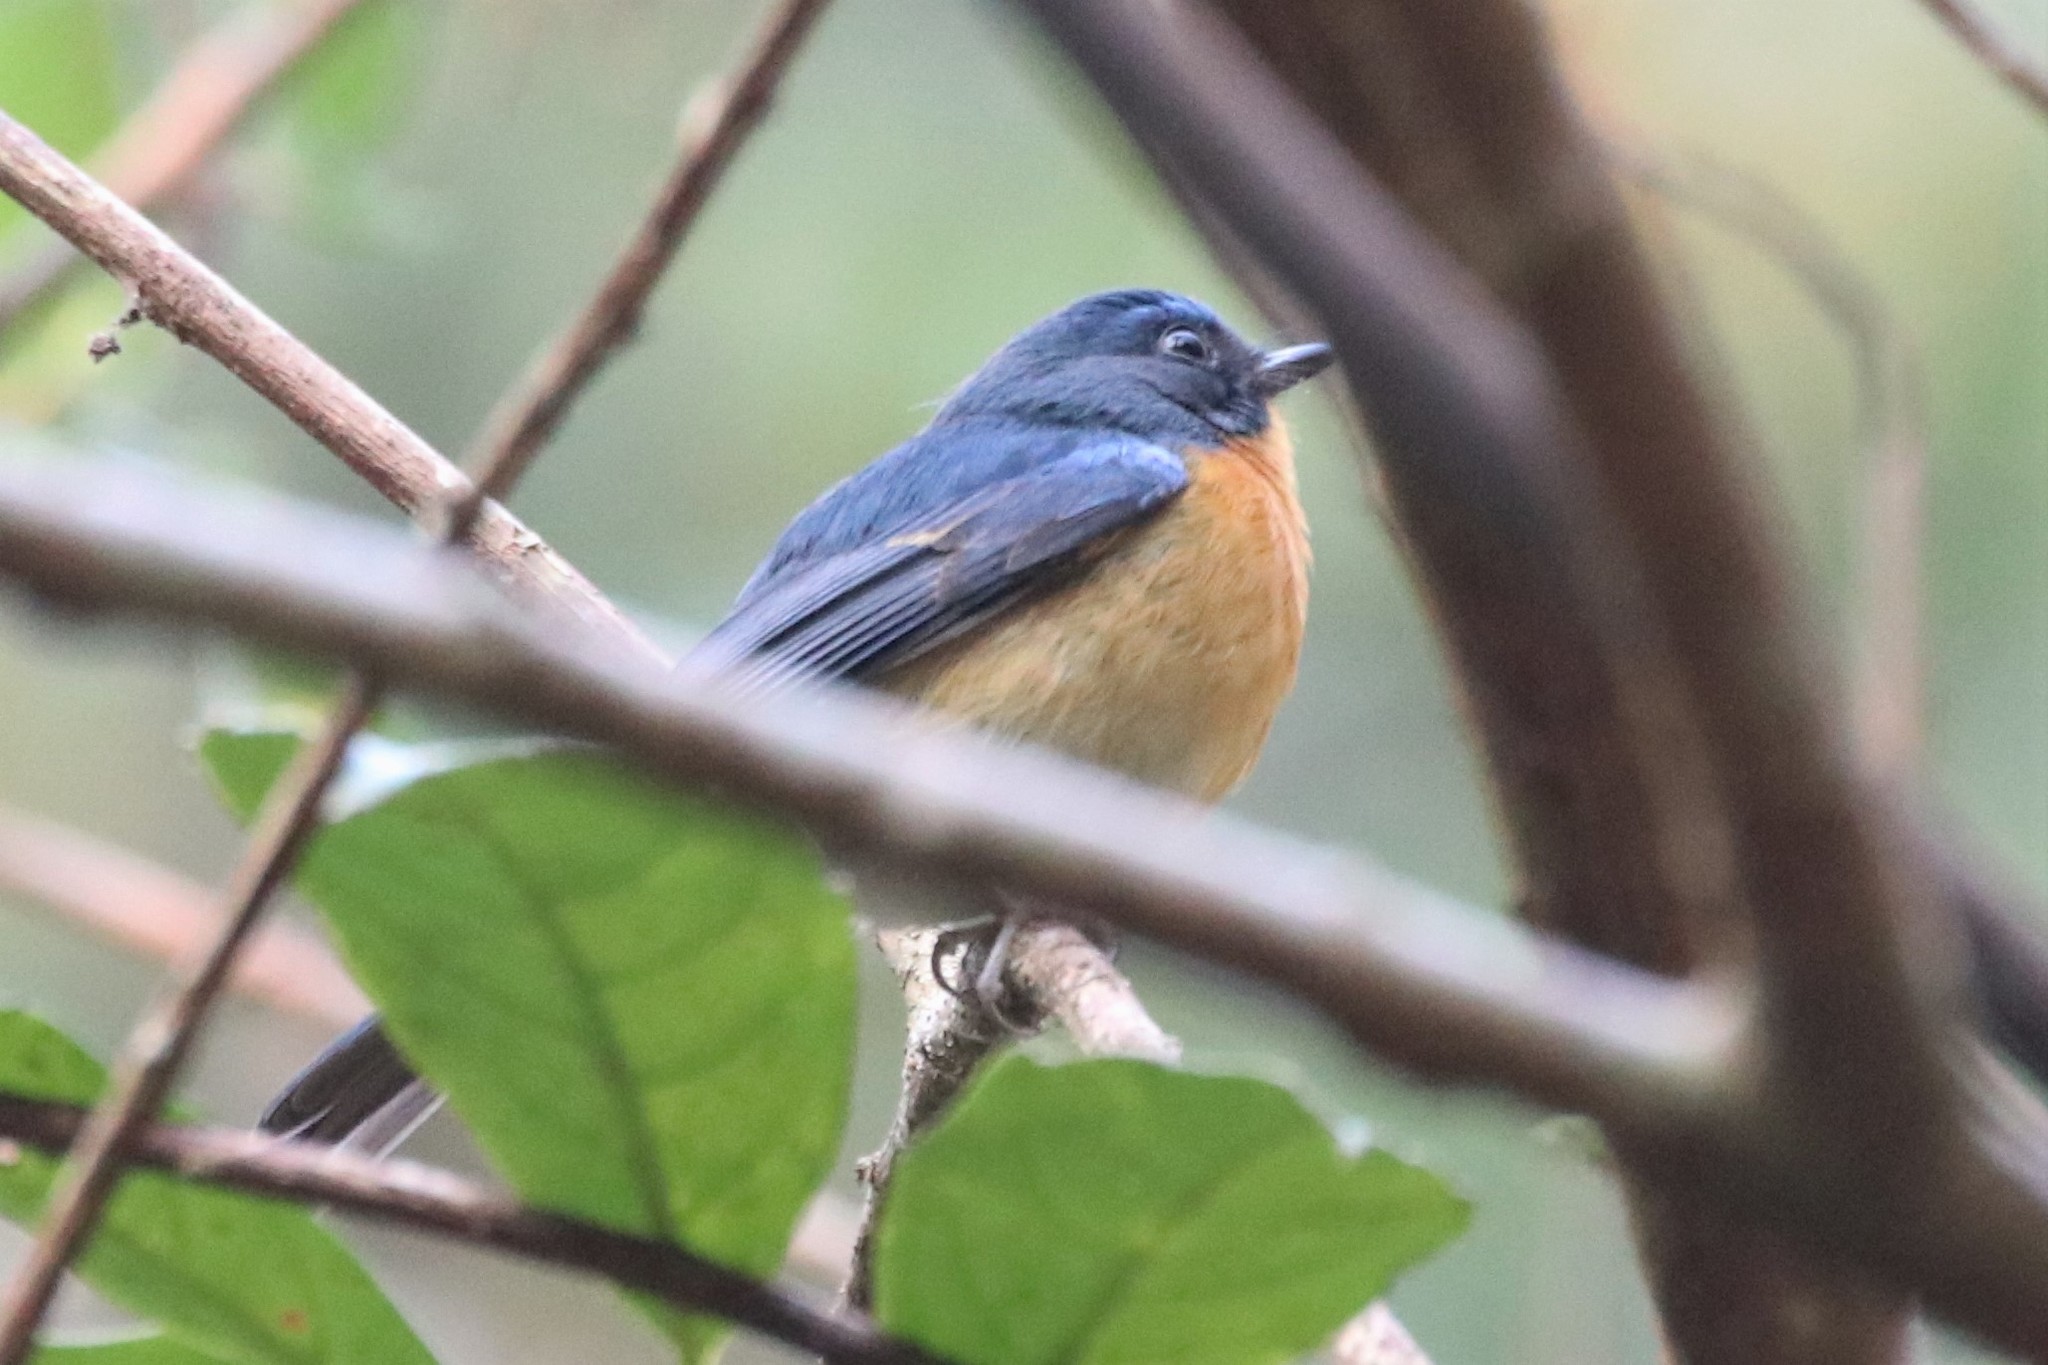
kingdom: Animalia
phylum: Chordata
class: Aves
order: Passeriformes
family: Muscicapidae
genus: Cyornis
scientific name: Cyornis whitei
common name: Hill blue flycatcher
